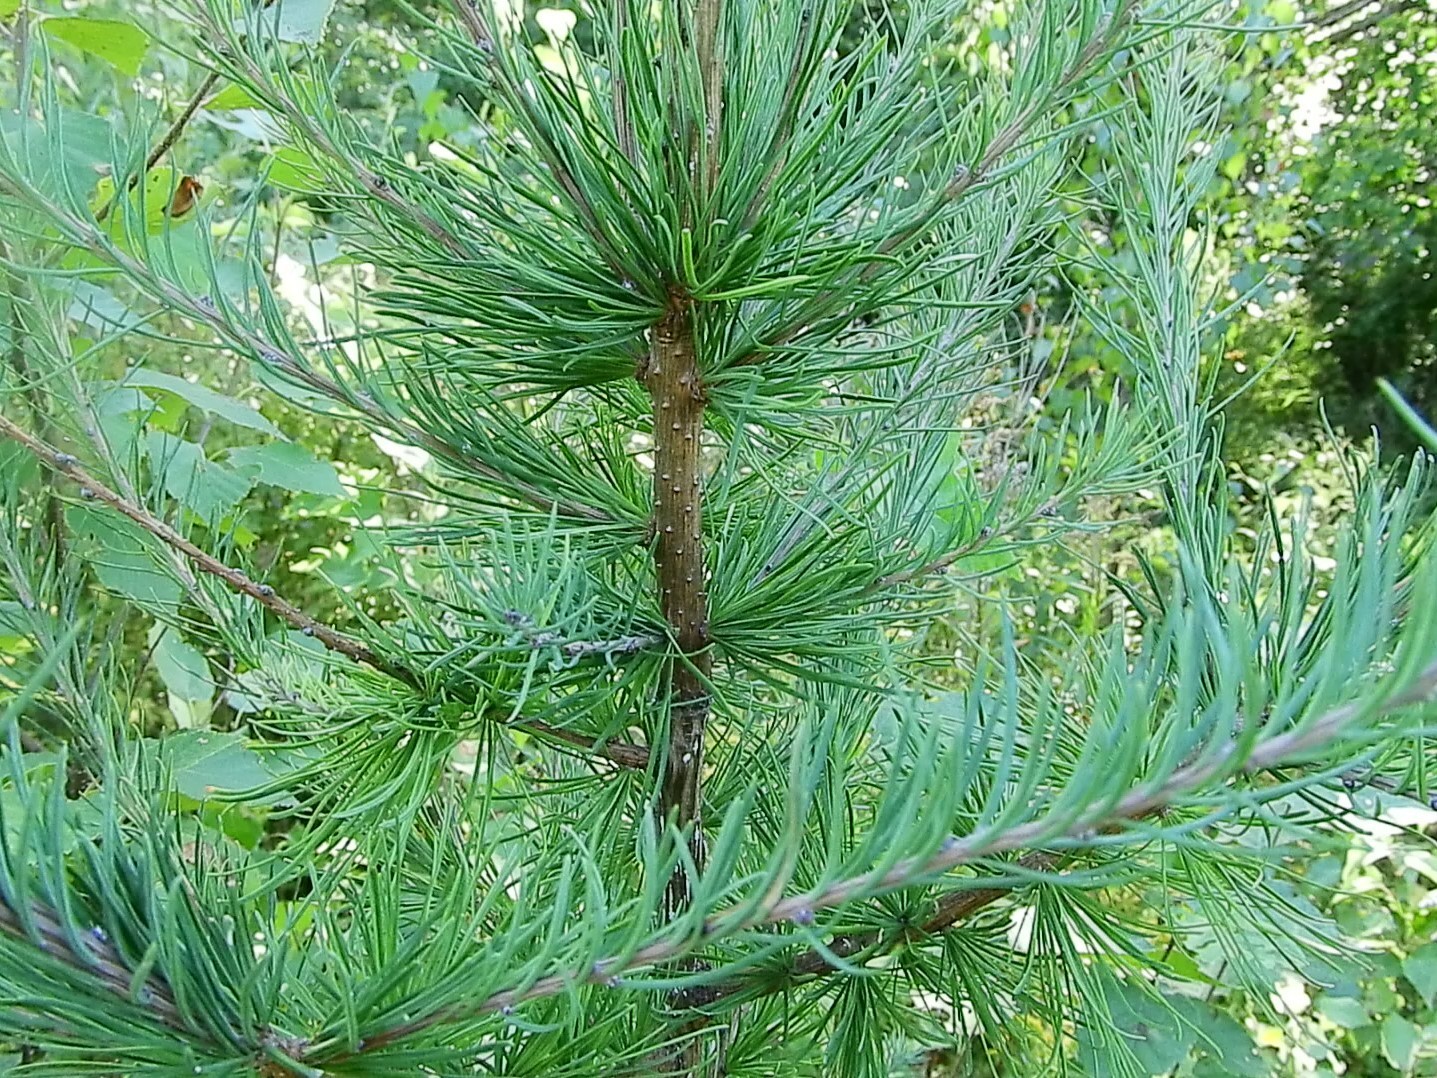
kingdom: Plantae
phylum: Tracheophyta
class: Pinopsida
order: Pinales
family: Pinaceae
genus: Larix
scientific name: Larix laricina
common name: American larch
